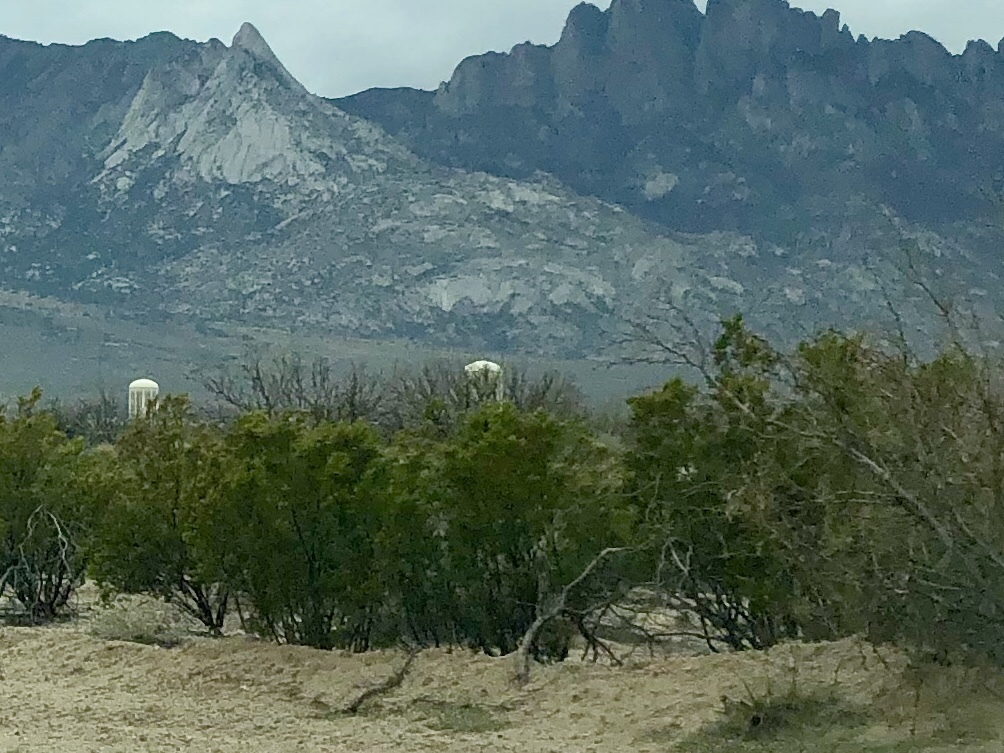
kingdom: Plantae
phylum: Tracheophyta
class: Magnoliopsida
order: Zygophyllales
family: Zygophyllaceae
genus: Larrea
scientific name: Larrea tridentata
